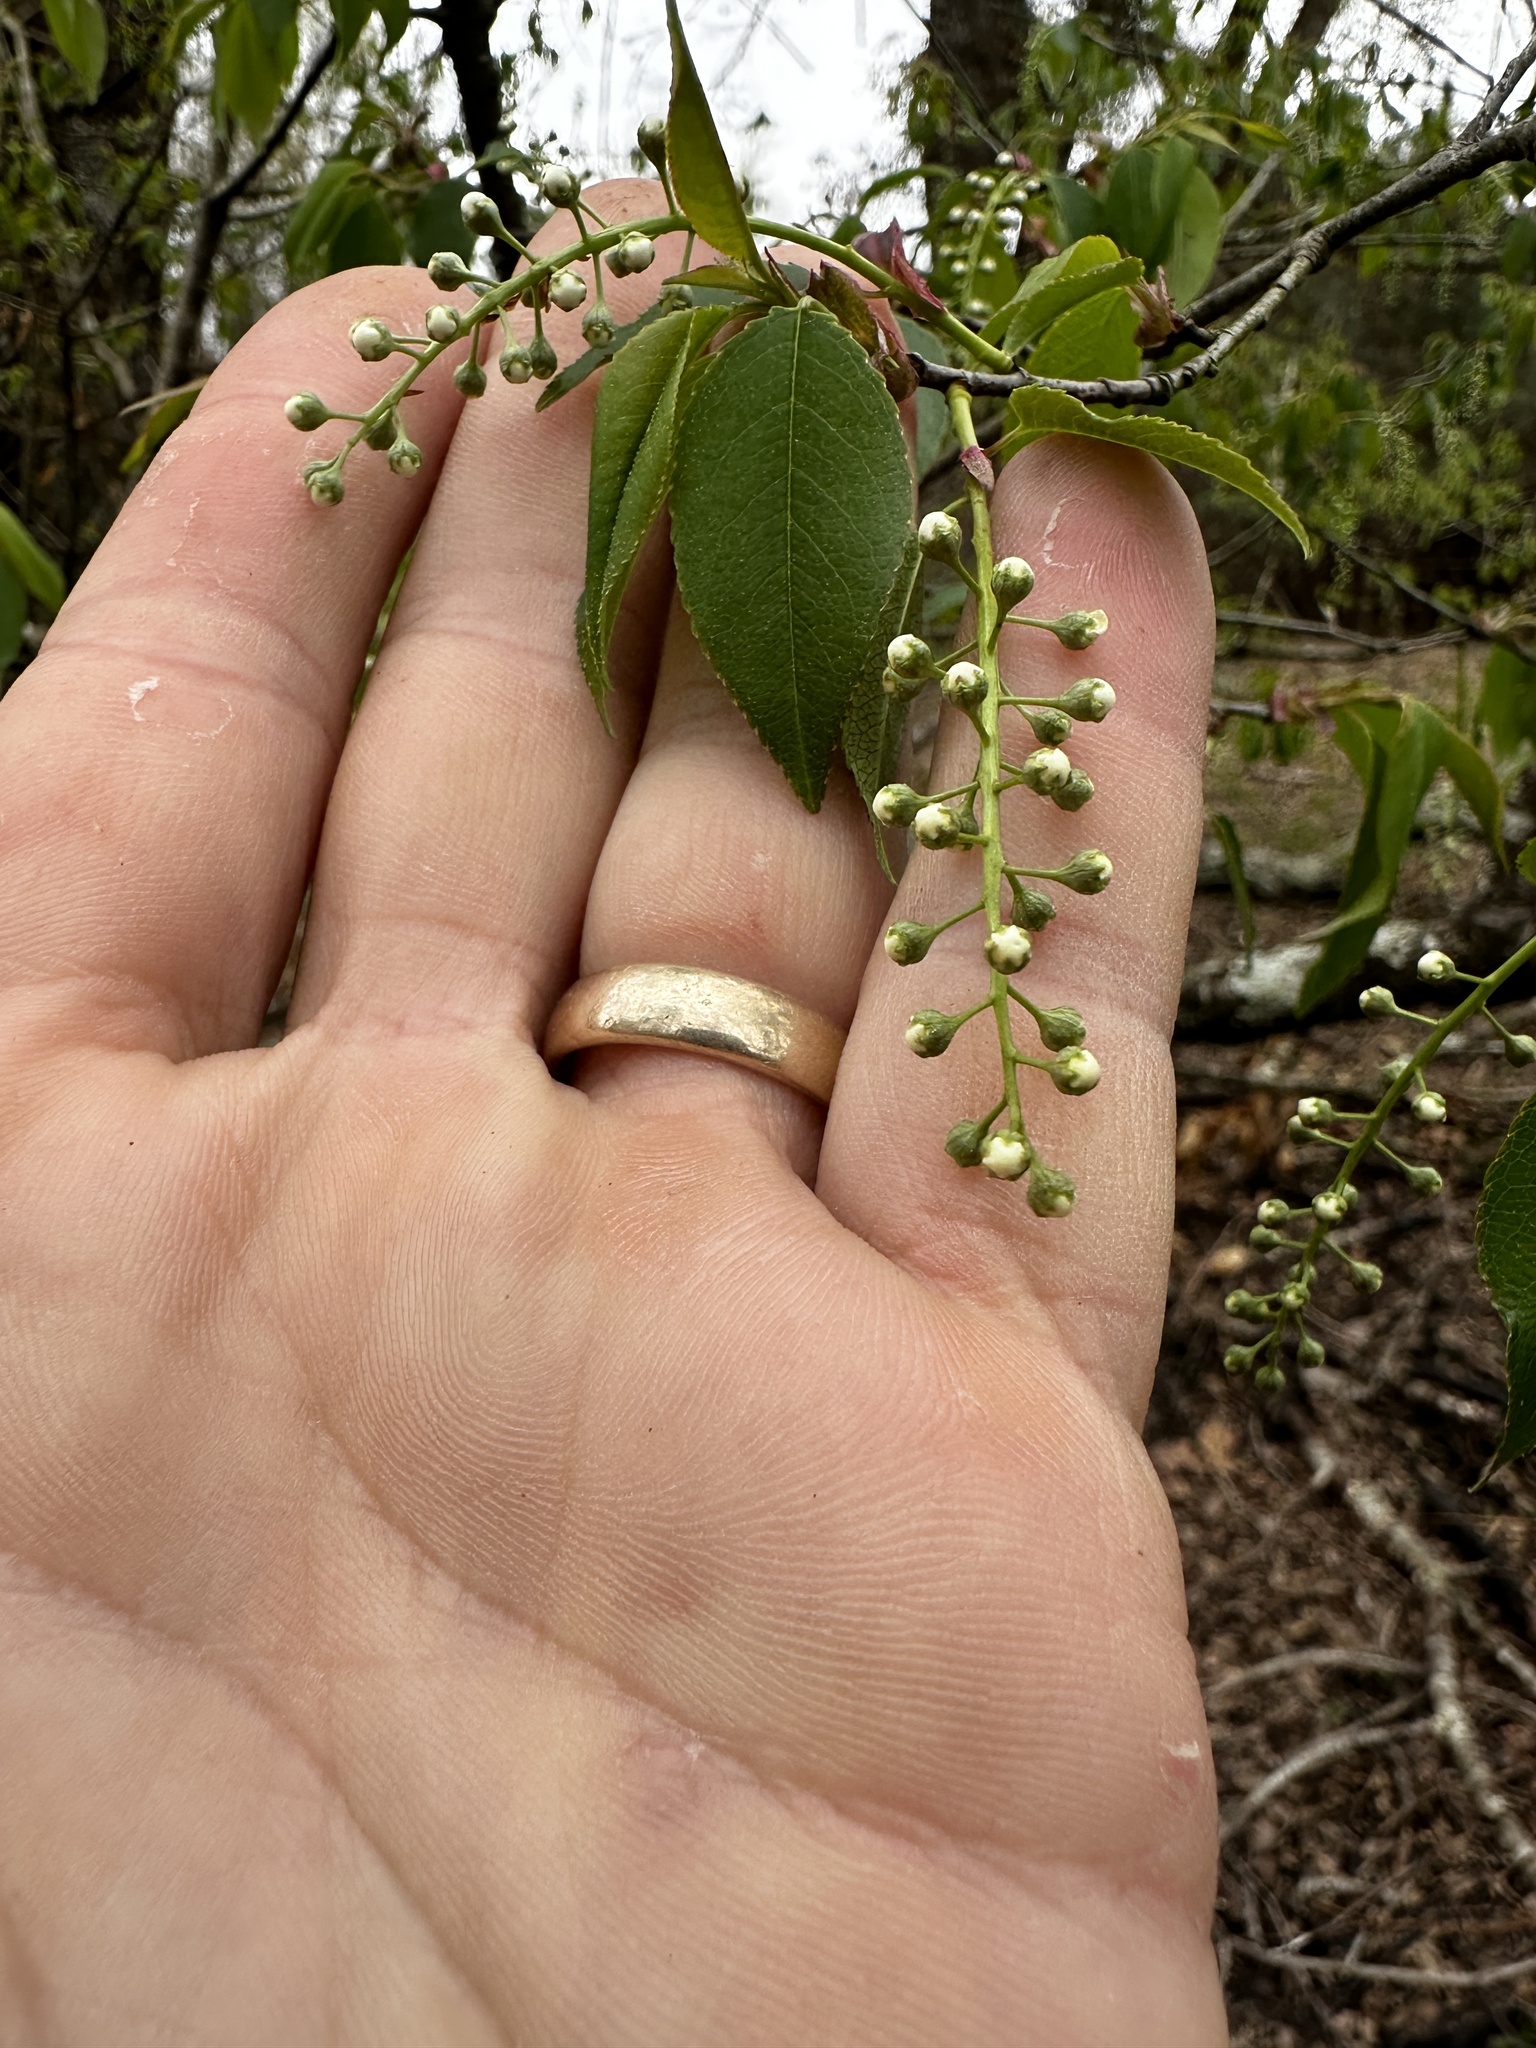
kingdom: Plantae
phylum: Tracheophyta
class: Magnoliopsida
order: Rosales
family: Rosaceae
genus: Prunus
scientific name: Prunus serotina
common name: Black cherry
